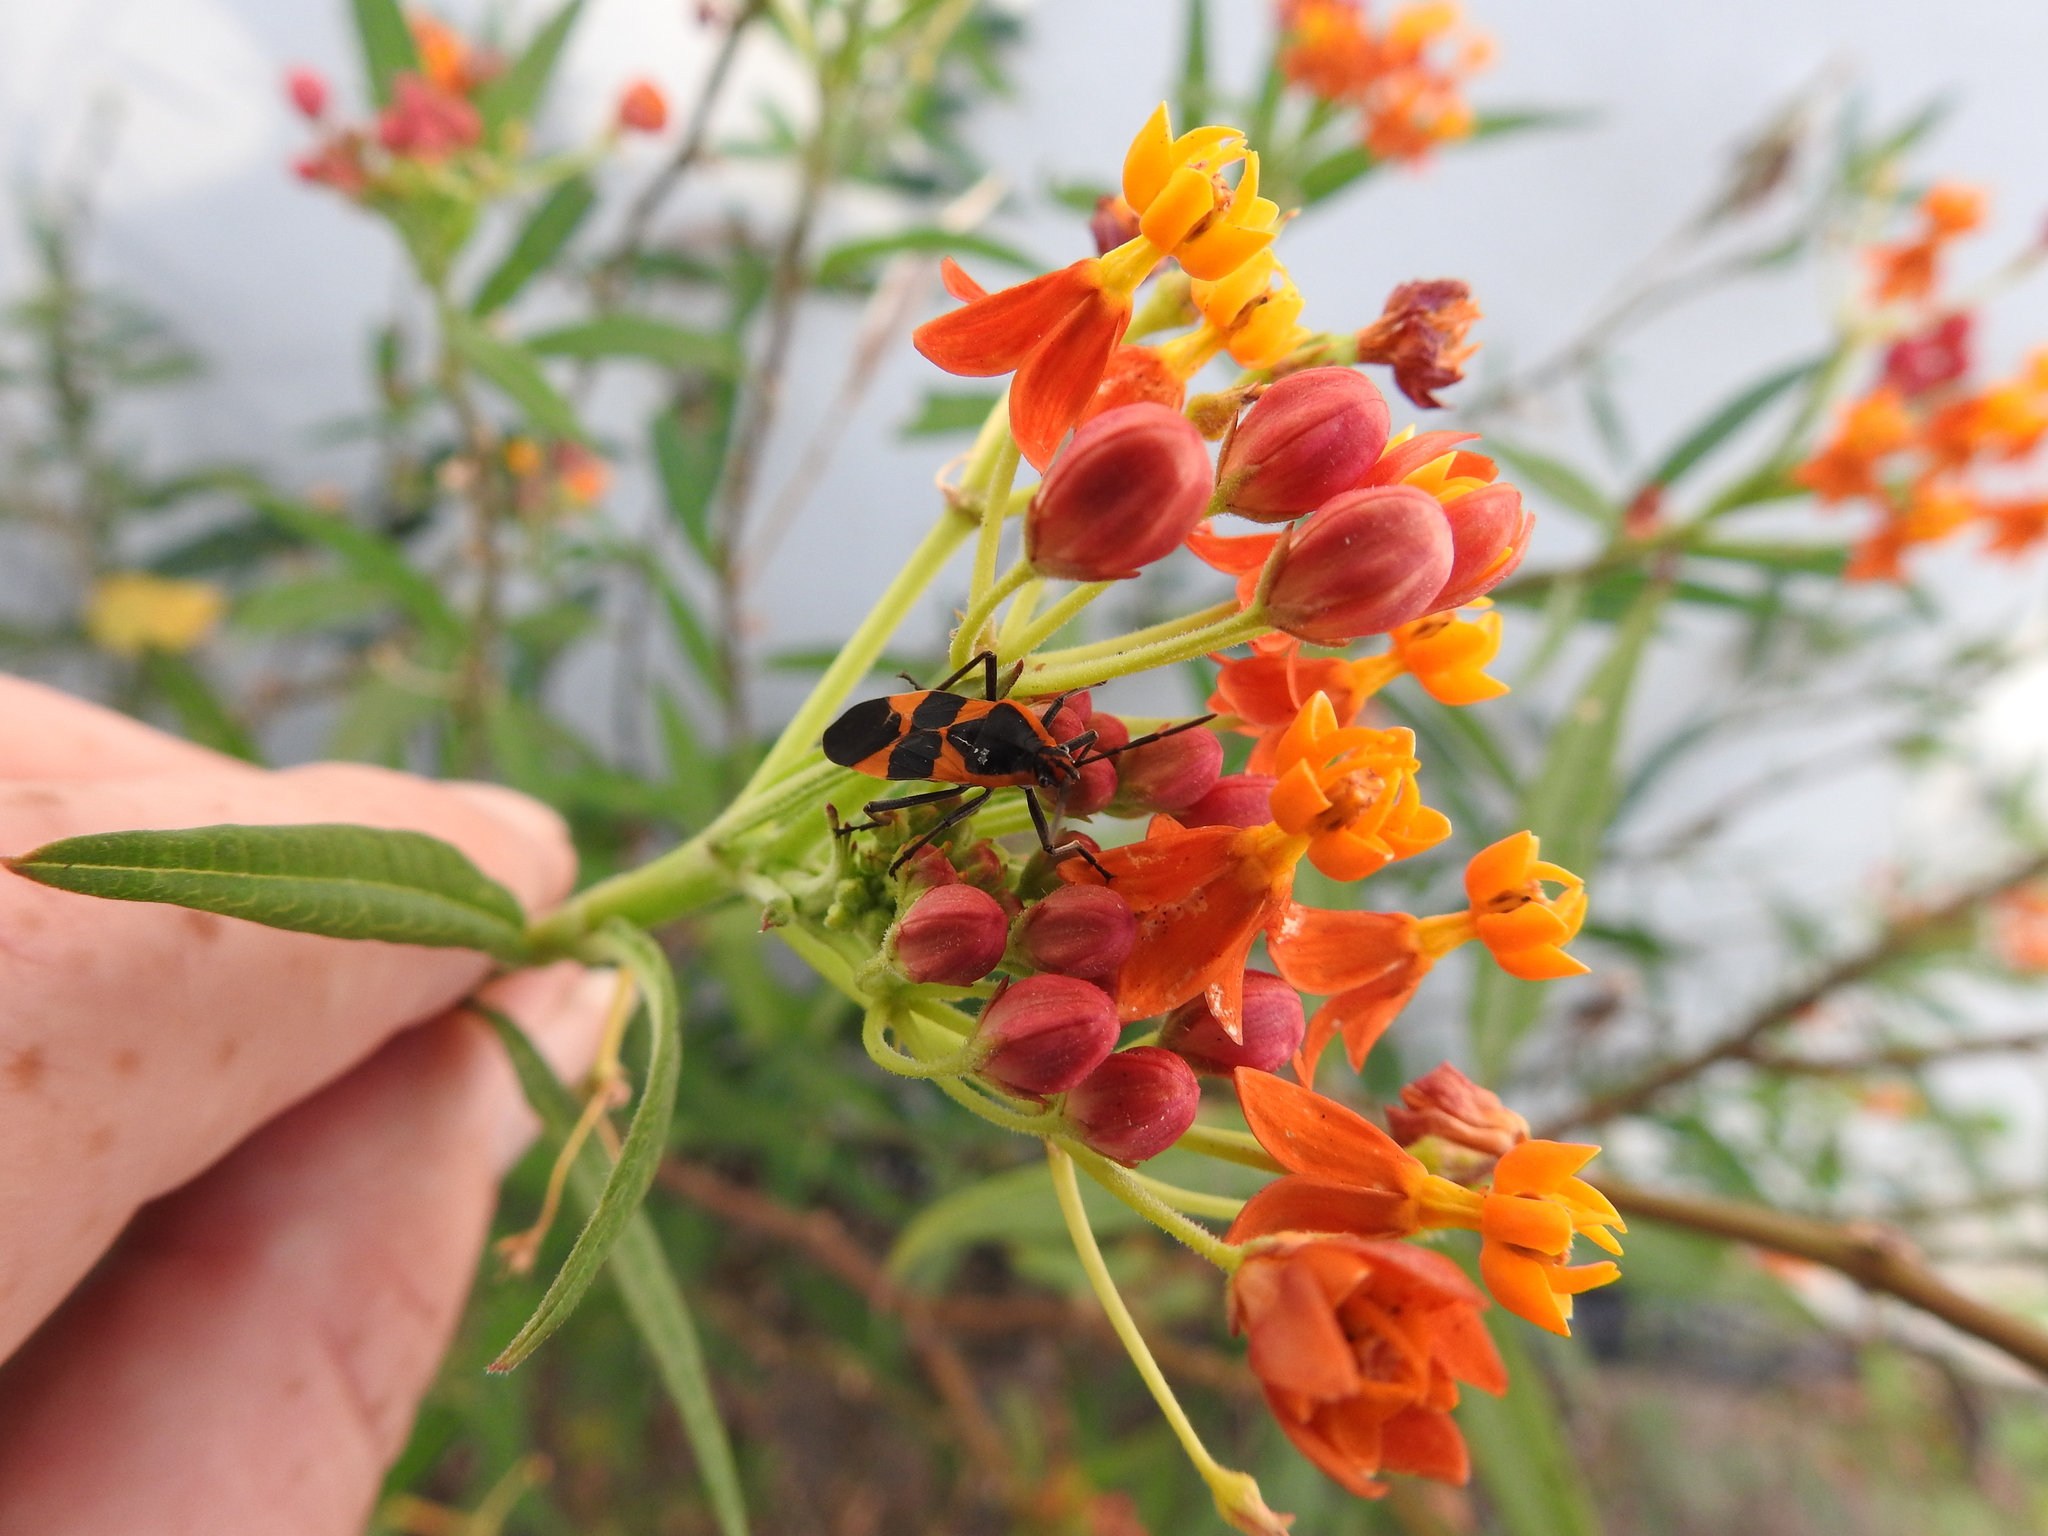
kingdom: Animalia
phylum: Arthropoda
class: Insecta
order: Hemiptera
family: Lygaeidae
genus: Oncopeltus
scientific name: Oncopeltus fasciatus
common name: Large milkweed bug
